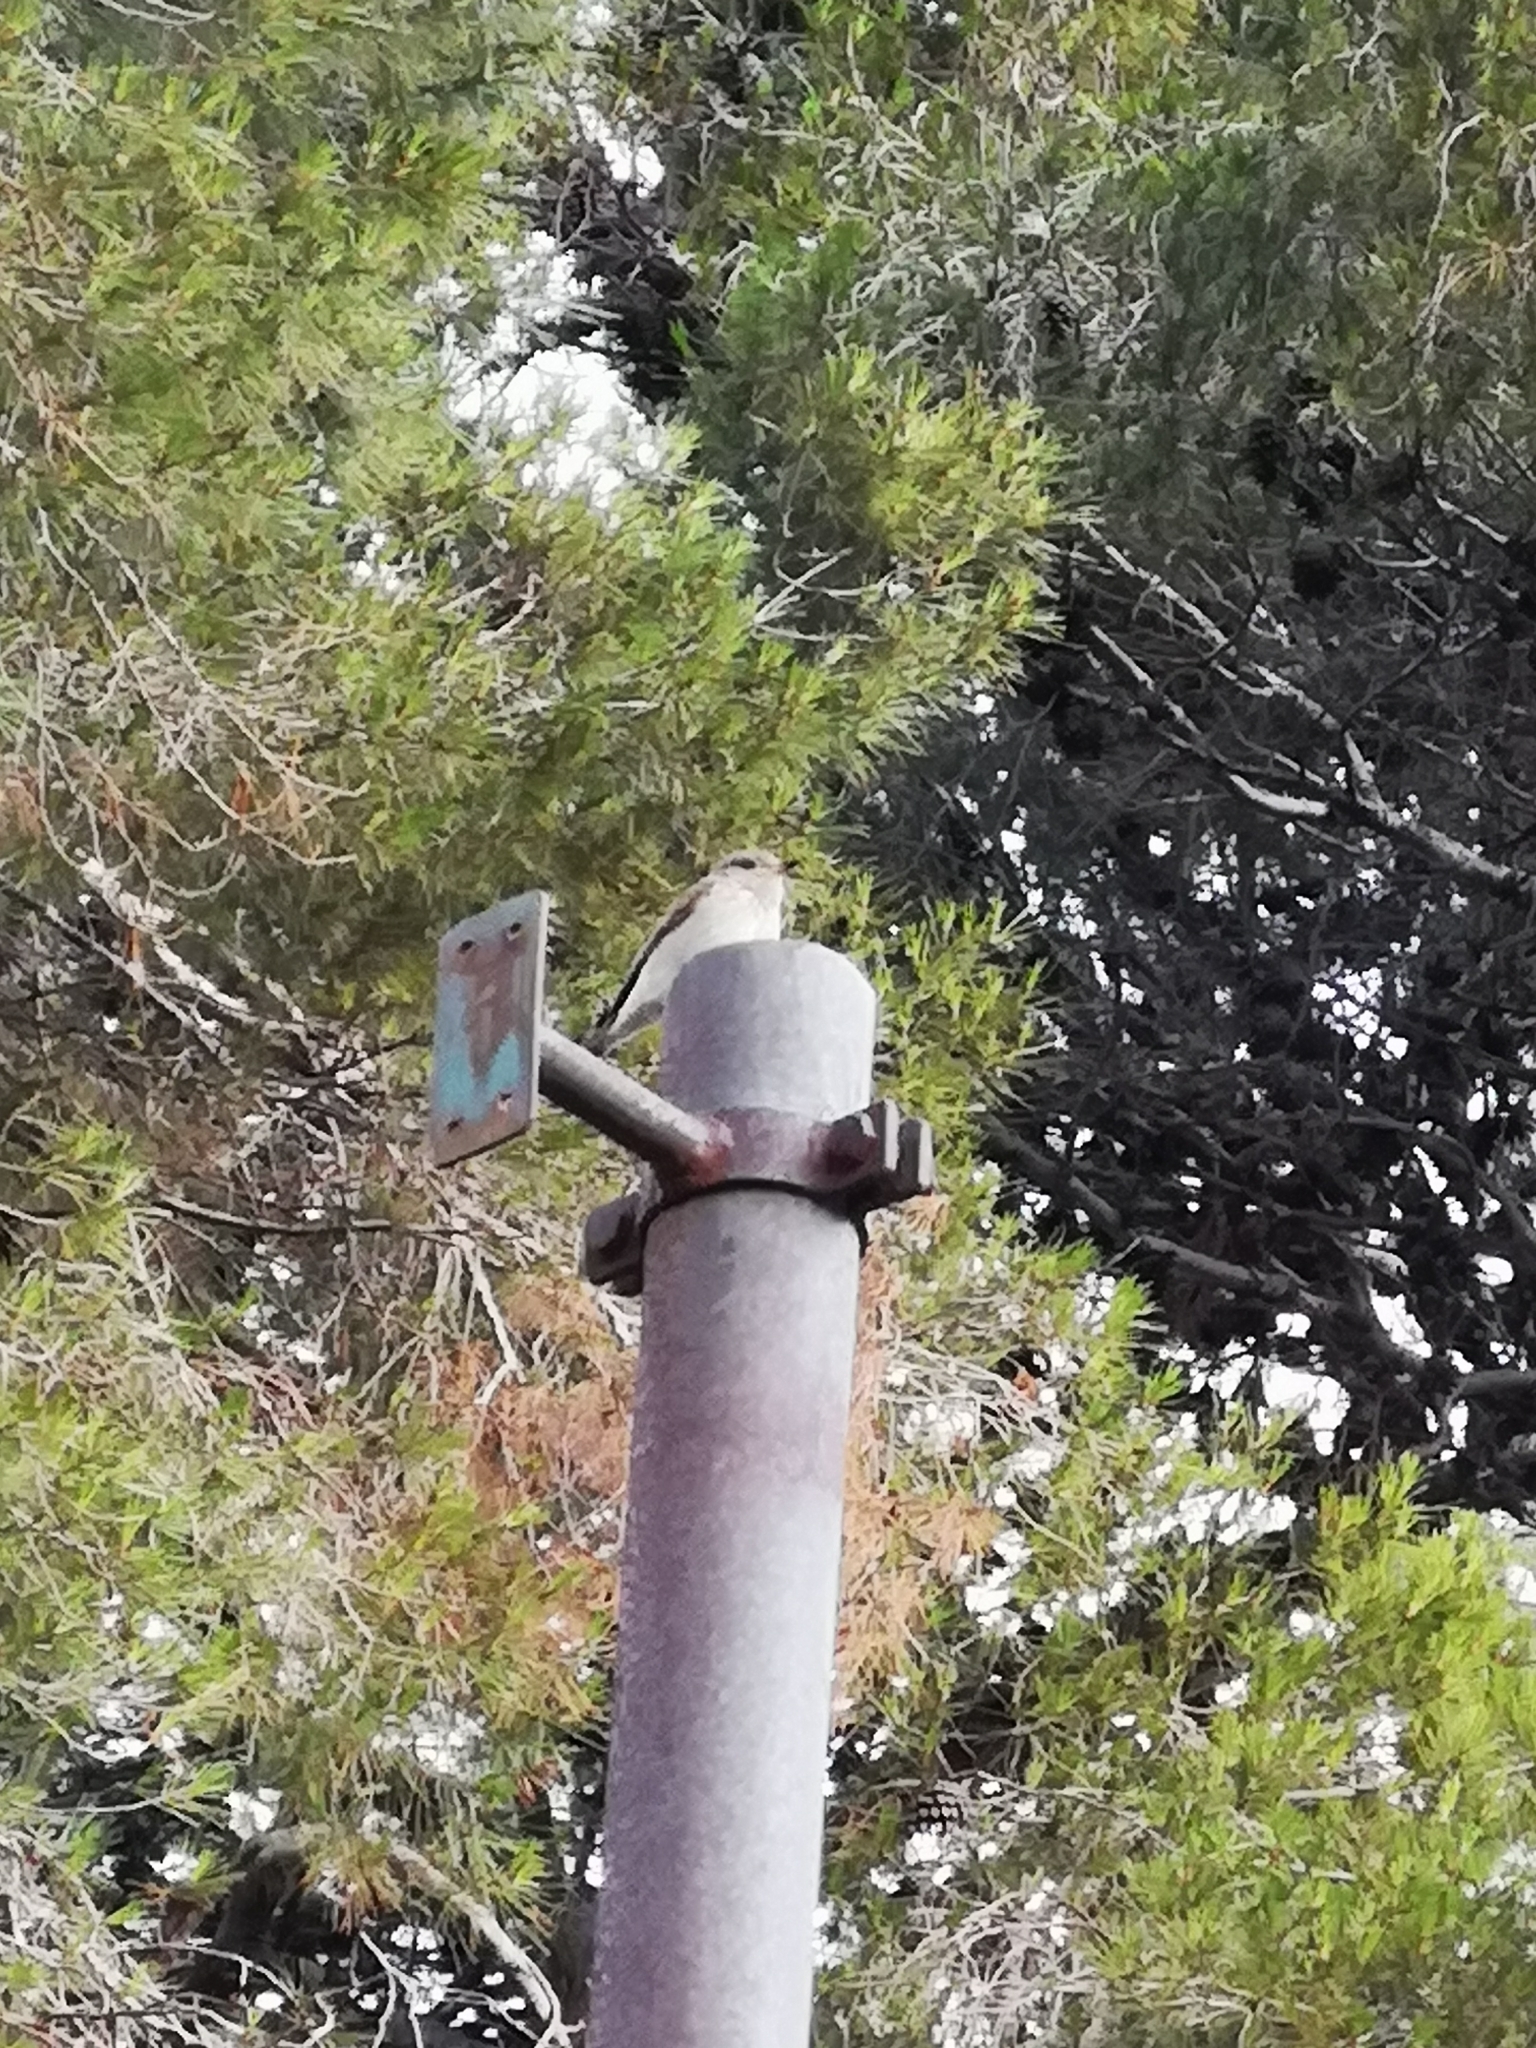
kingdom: Animalia
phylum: Chordata
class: Aves
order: Passeriformes
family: Muscicapidae
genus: Muscicapa
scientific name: Muscicapa striata
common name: Spotted flycatcher
